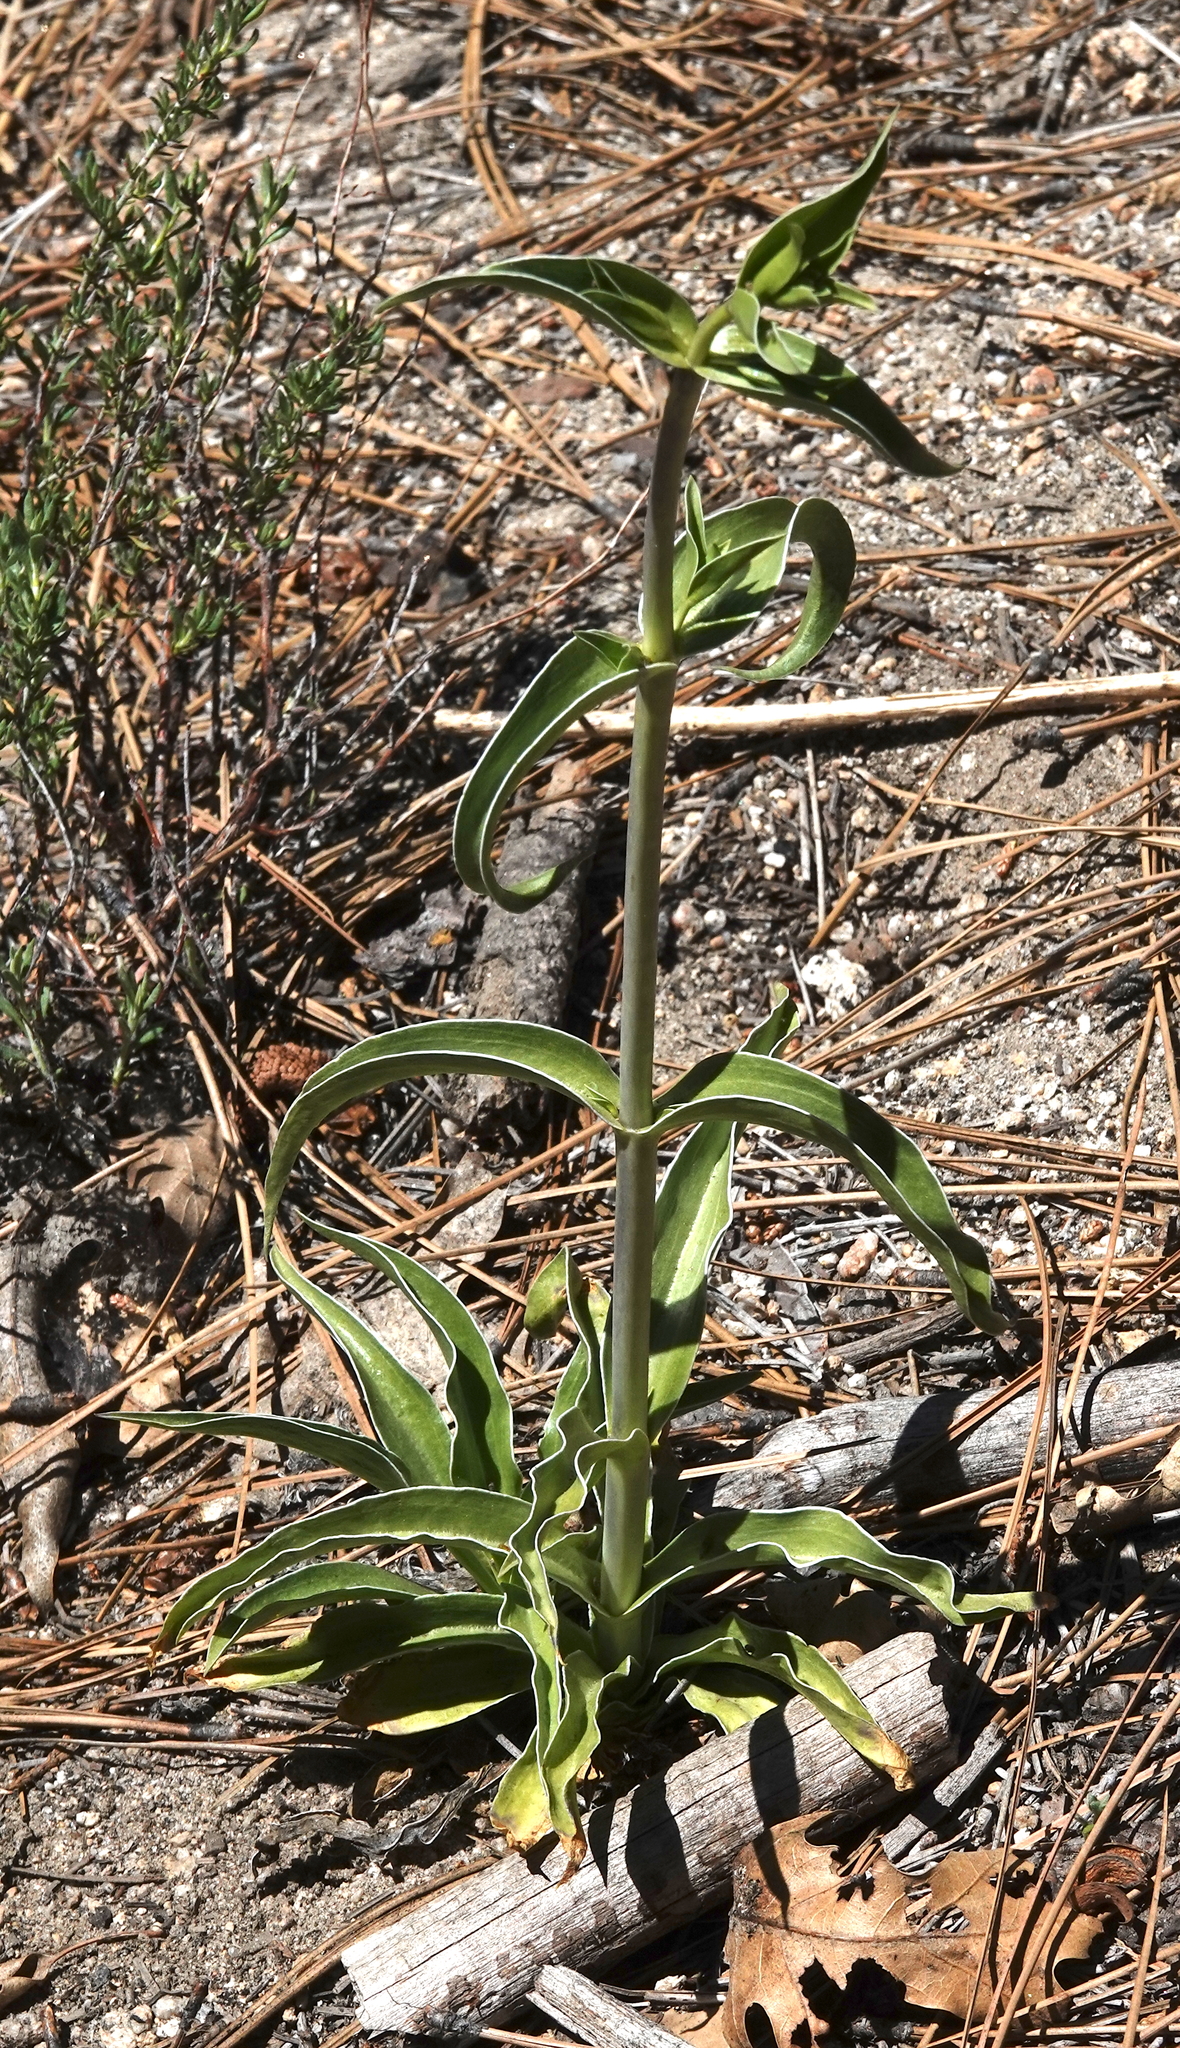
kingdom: Plantae
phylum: Tracheophyta
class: Magnoliopsida
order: Gentianales
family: Gentianaceae
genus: Frasera
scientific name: Frasera parryi
